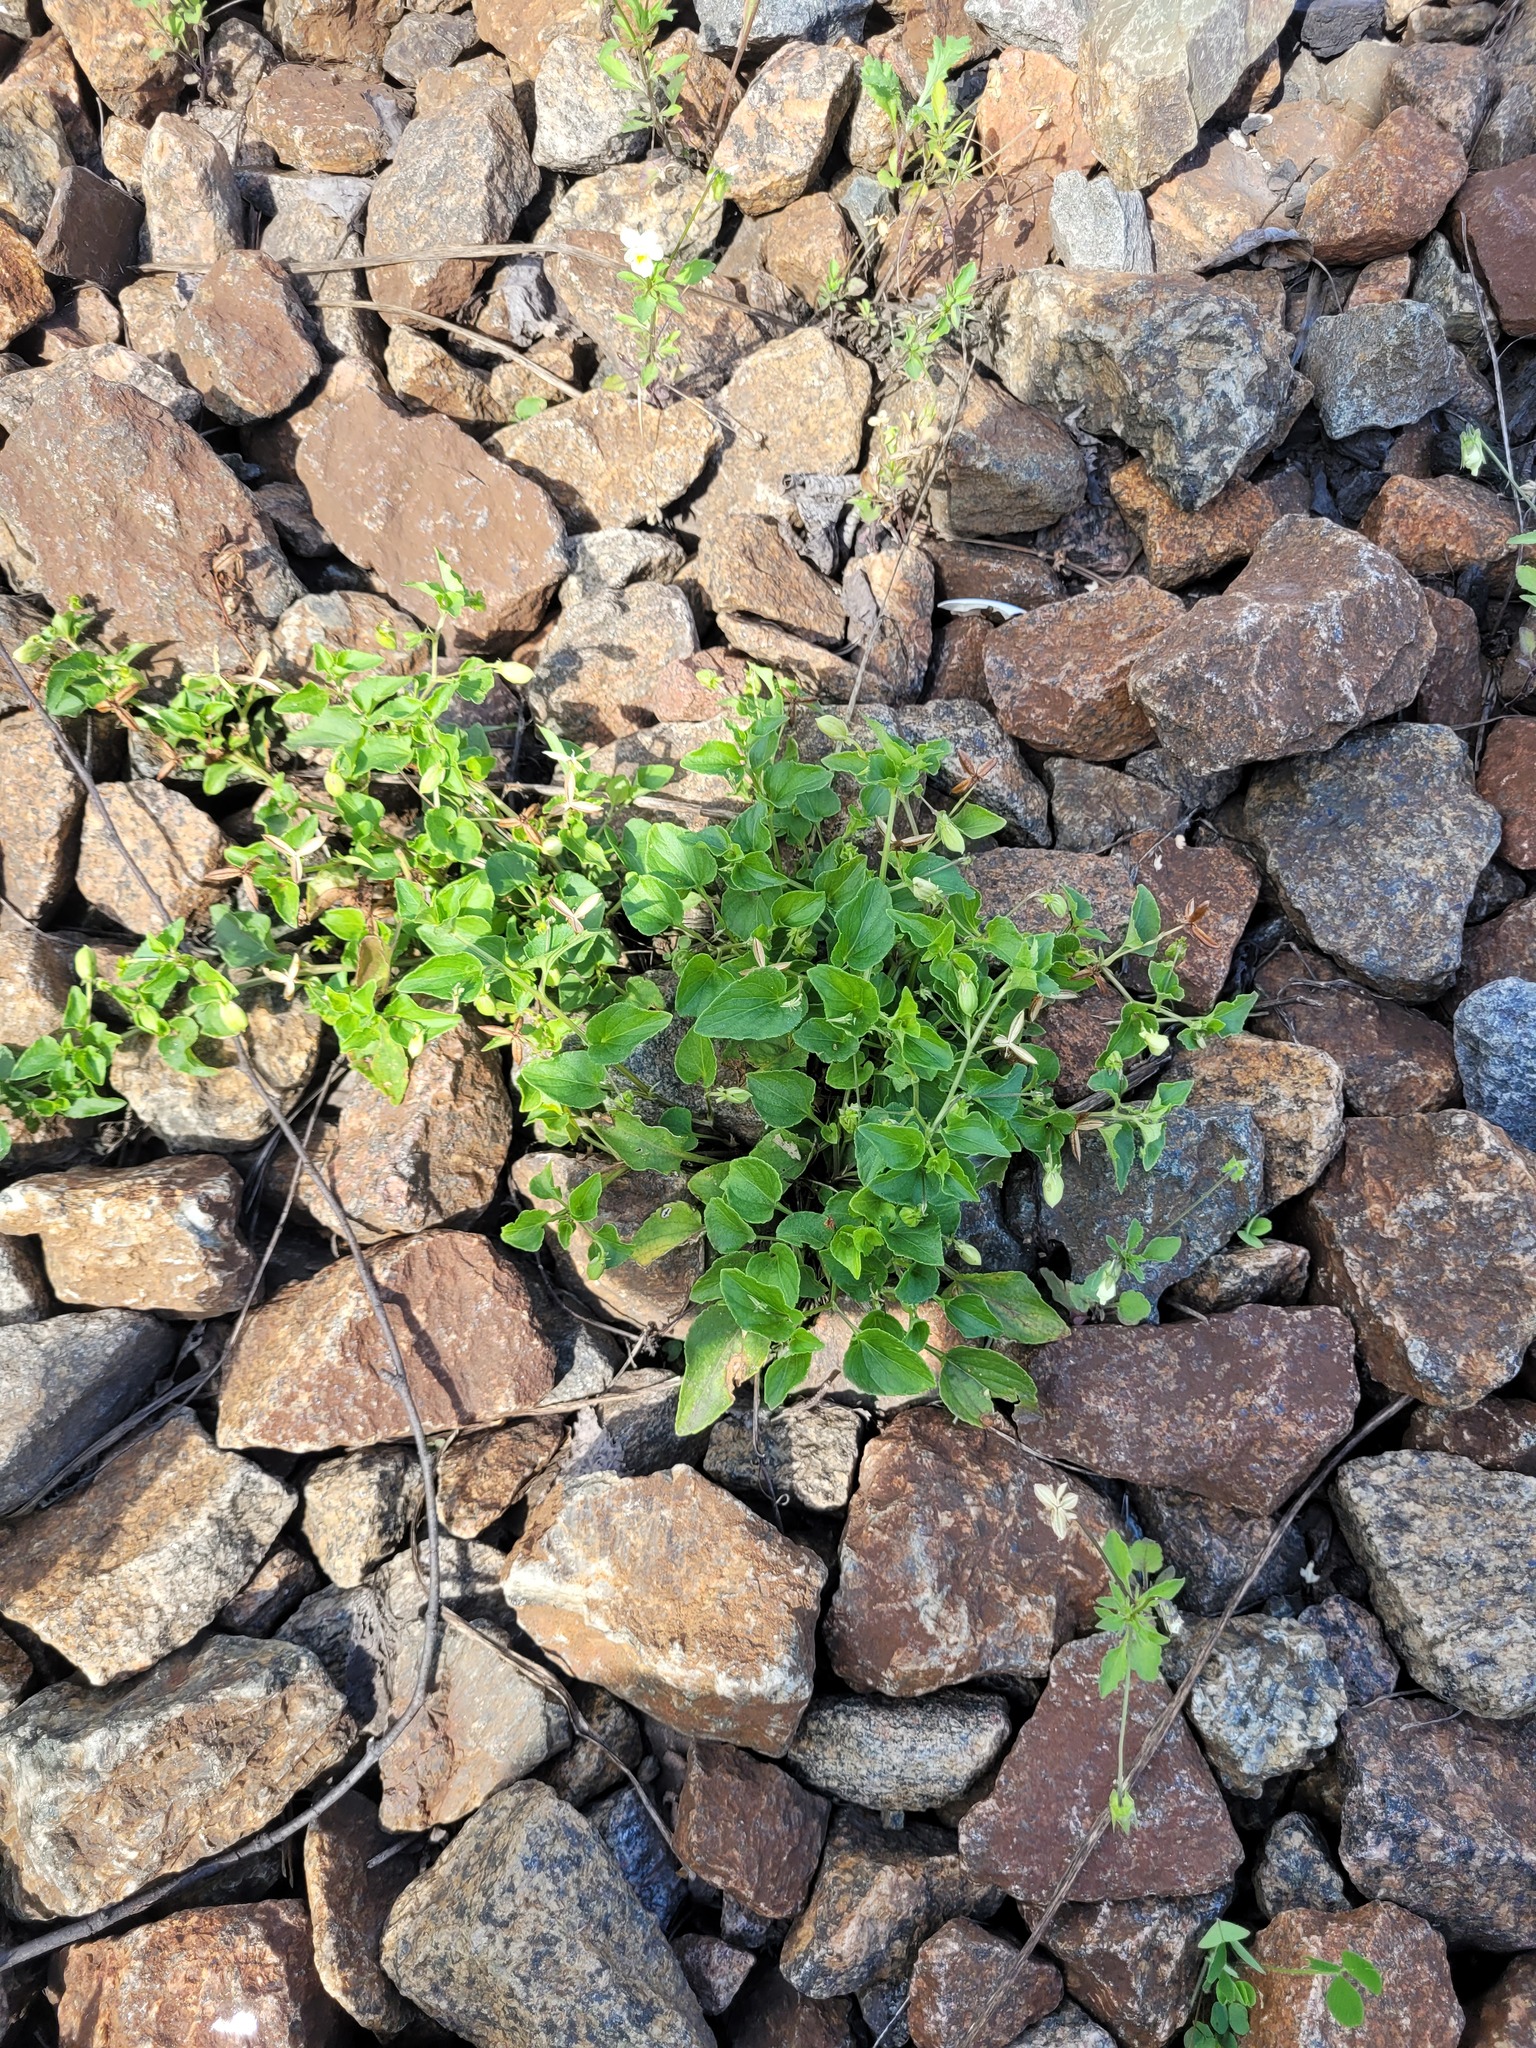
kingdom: Plantae
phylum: Tracheophyta
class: Magnoliopsida
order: Malpighiales
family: Violaceae
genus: Viola
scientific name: Viola canina
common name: Heath dog-violet
